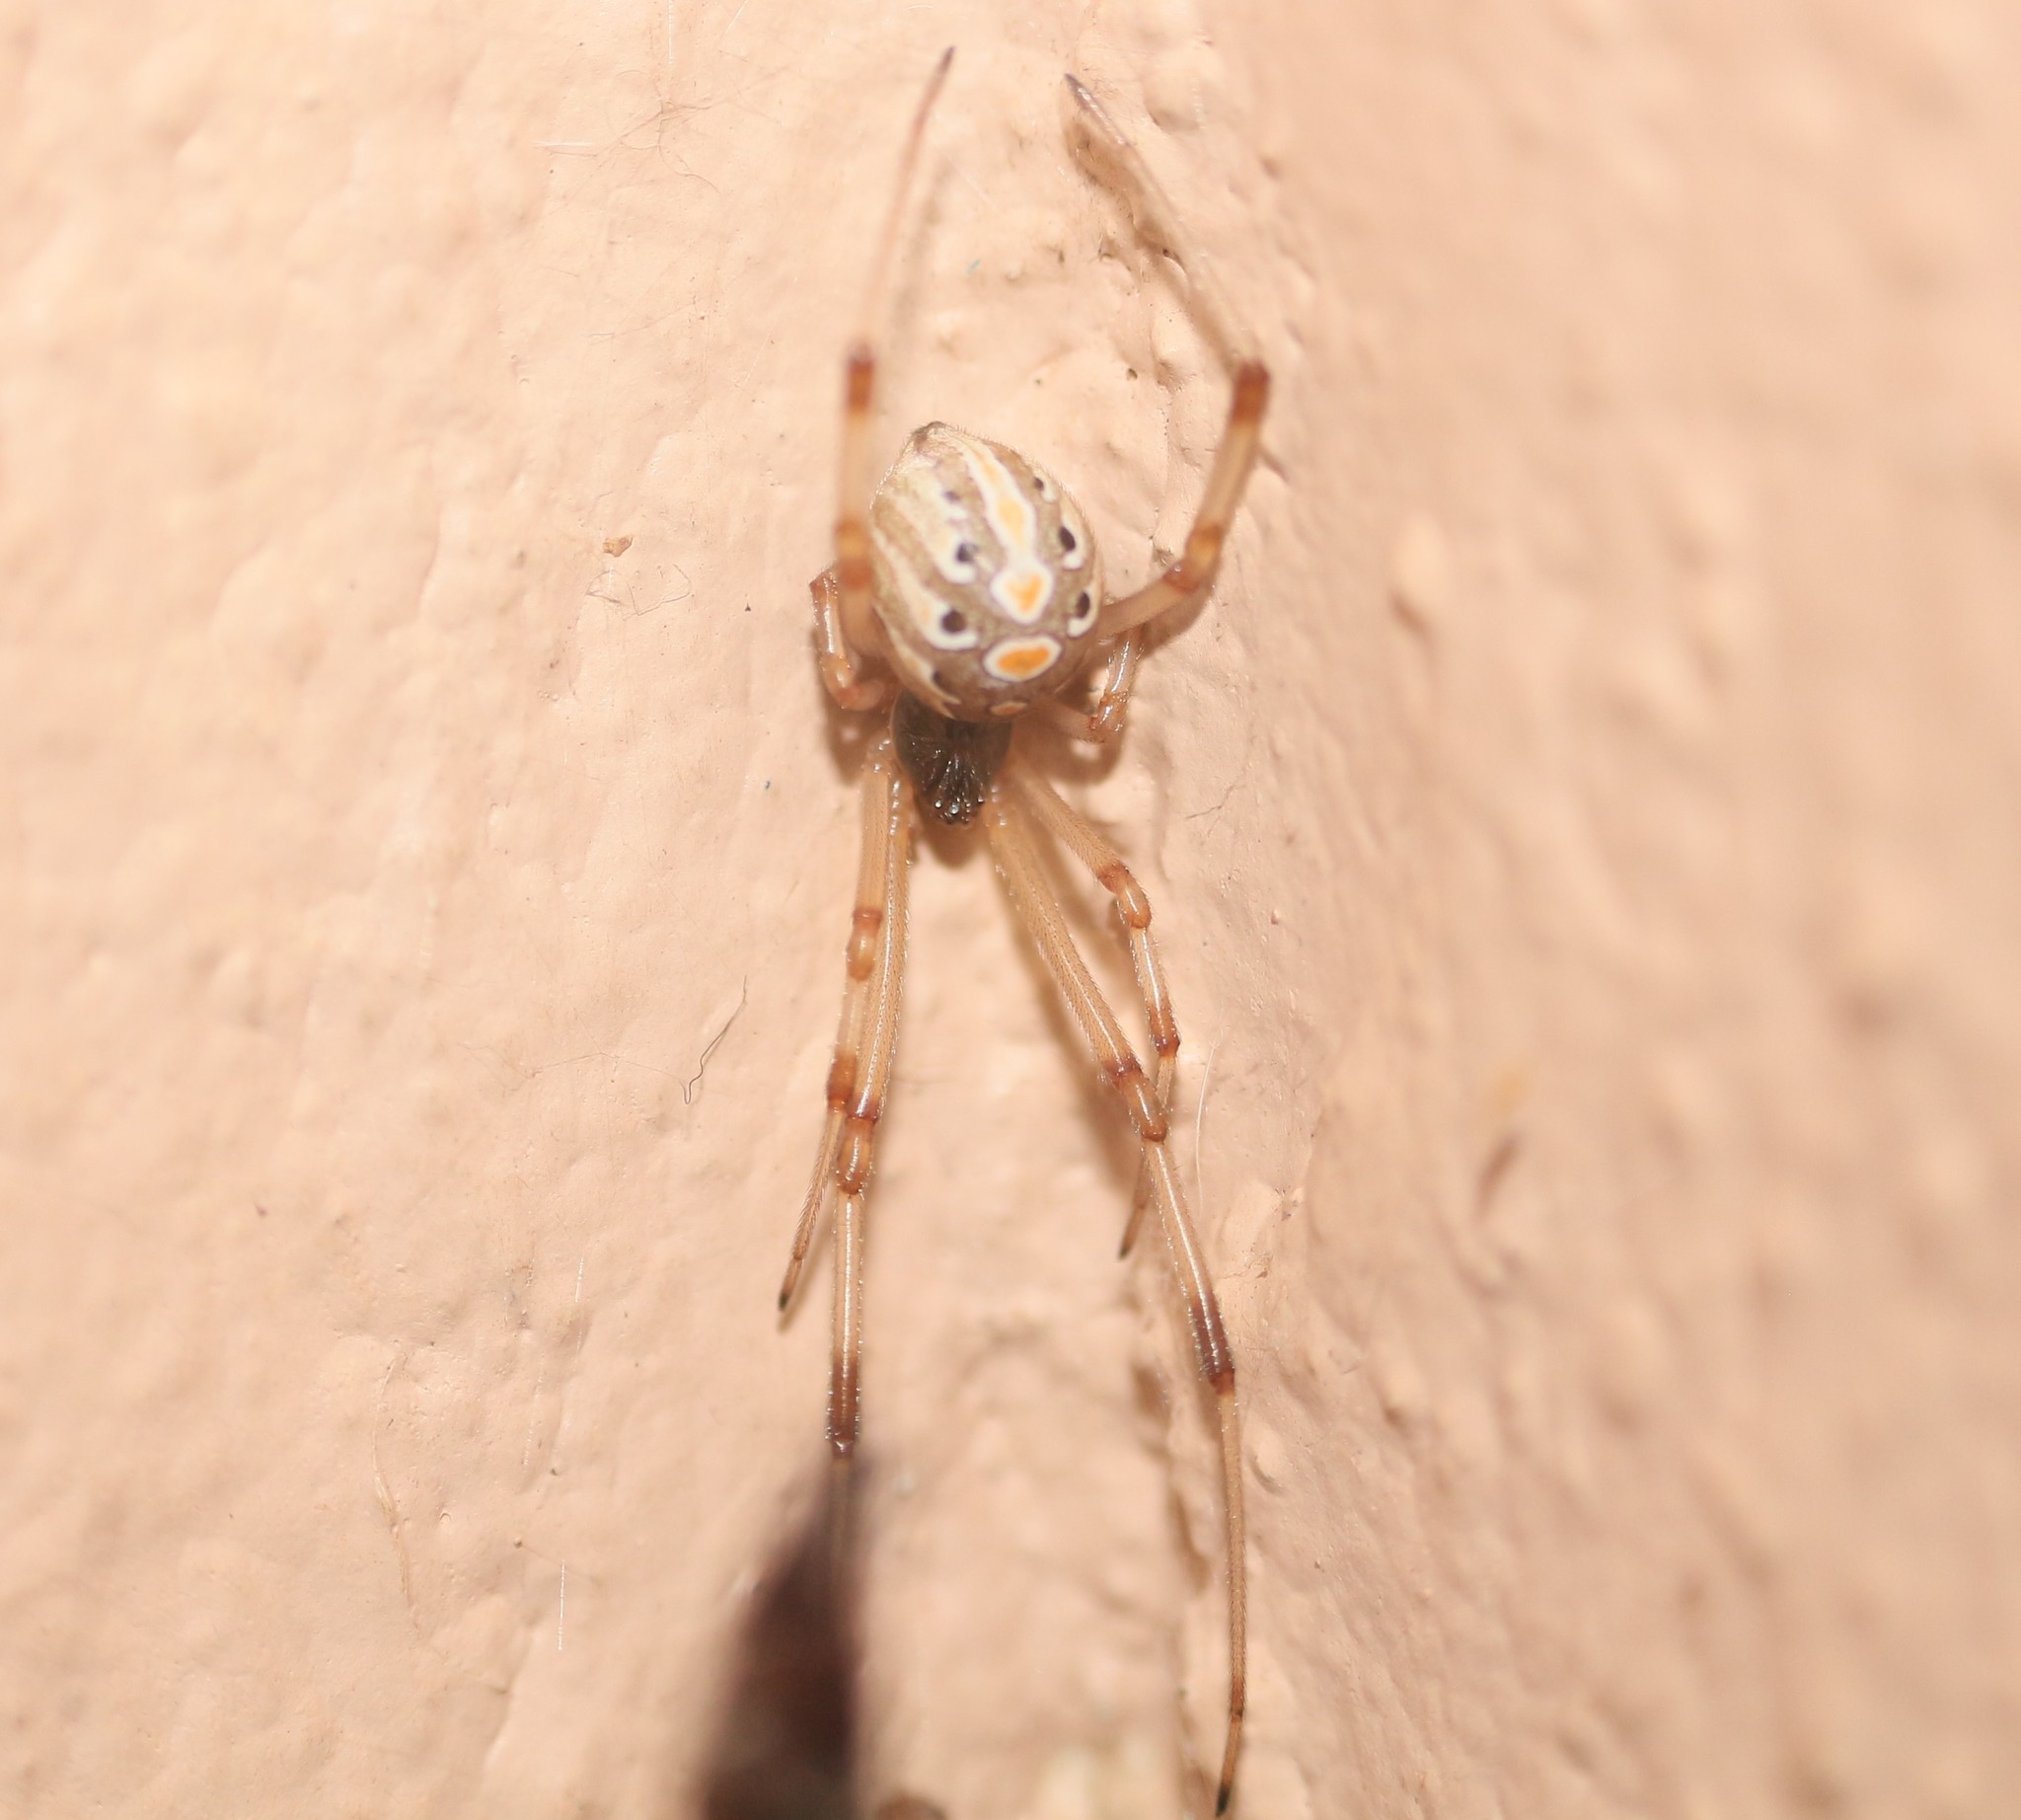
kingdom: Animalia
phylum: Arthropoda
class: Arachnida
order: Araneae
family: Theridiidae
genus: Latrodectus
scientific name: Latrodectus geometricus
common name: Brown widow spider
